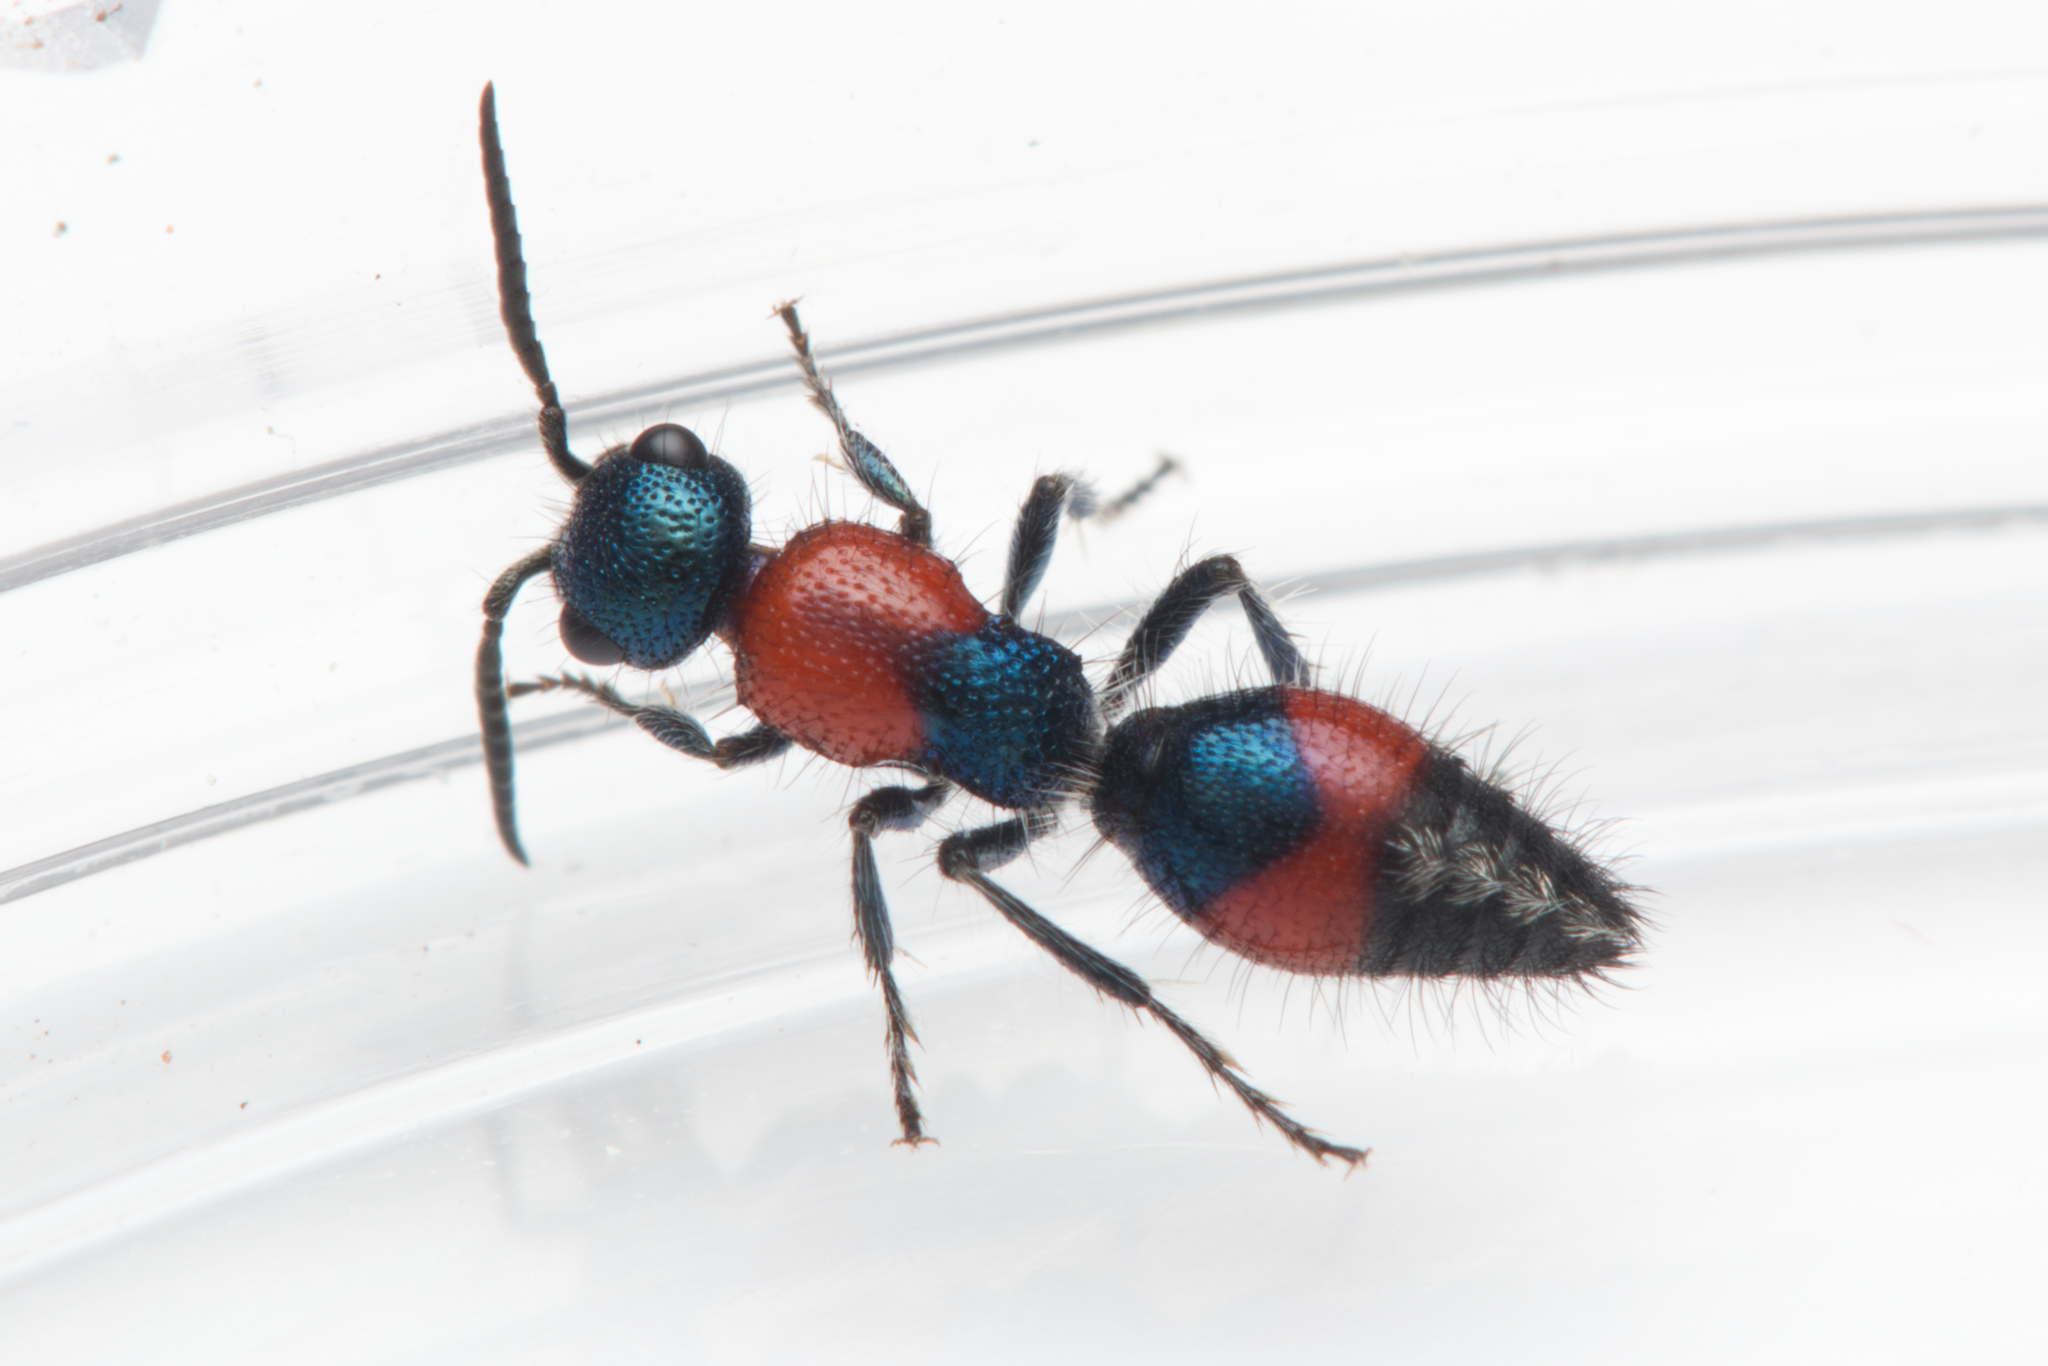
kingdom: Animalia
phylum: Arthropoda
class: Insecta
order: Hymenoptera
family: Mutillidae
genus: Ephutomorpha
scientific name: Ephutomorpha
